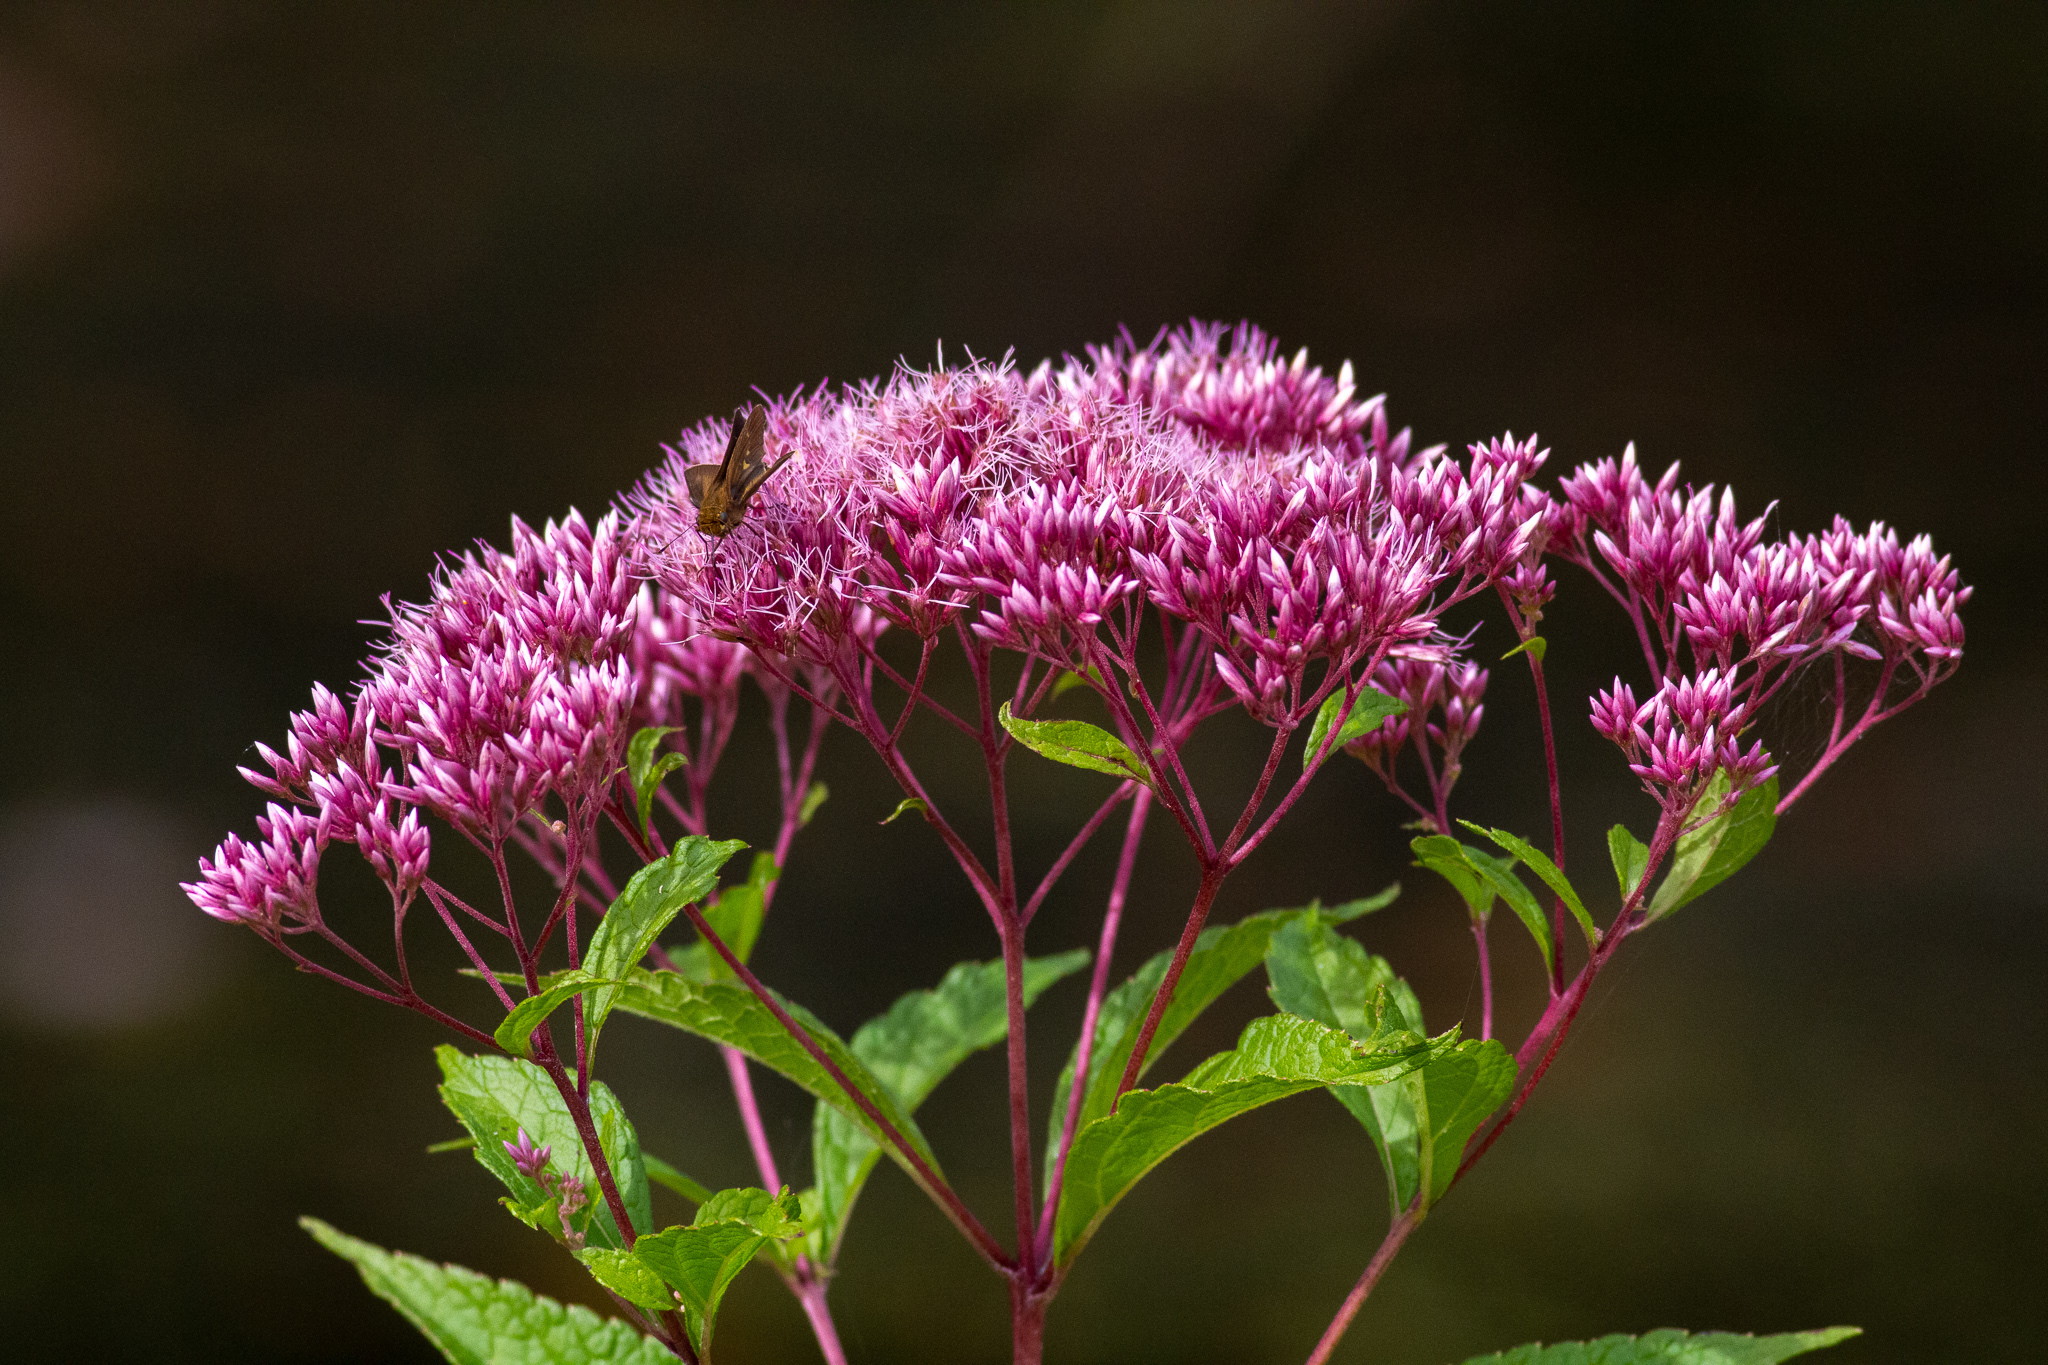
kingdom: Plantae
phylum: Tracheophyta
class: Magnoliopsida
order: Asterales
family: Asteraceae
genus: Eutrochium
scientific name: Eutrochium dubium
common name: Coastal plain joe pye weed
